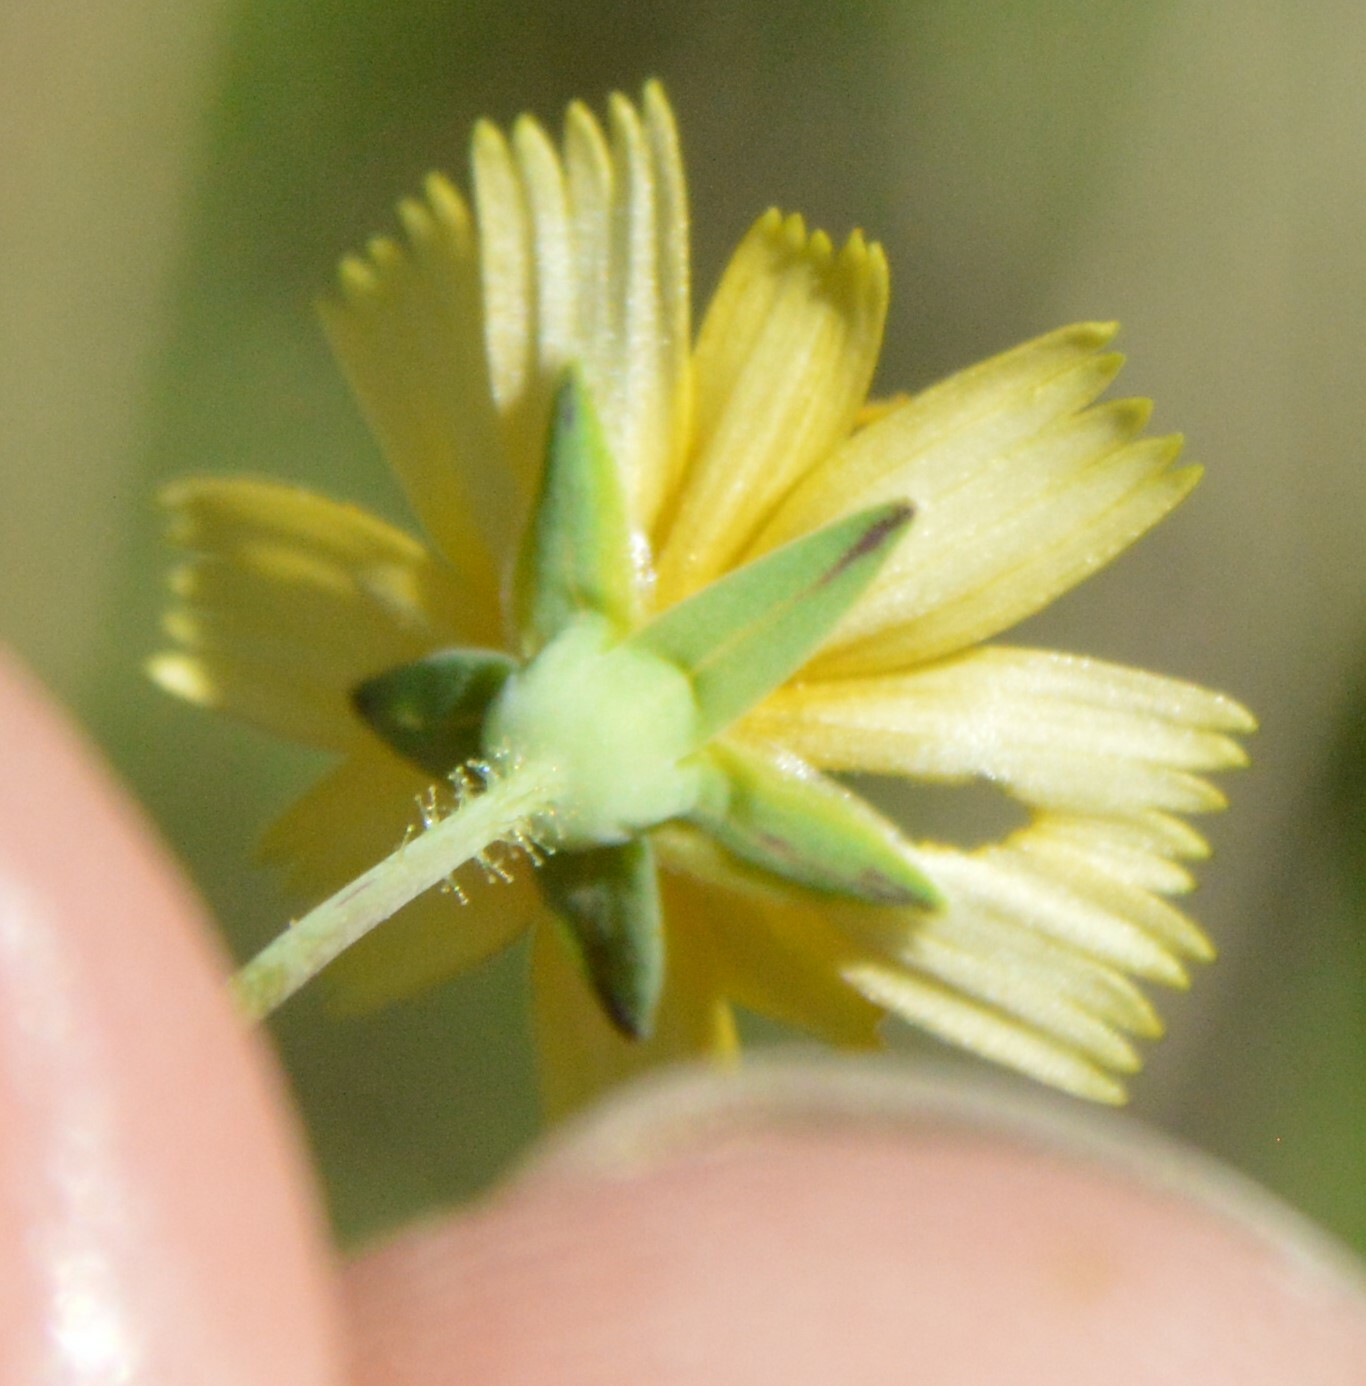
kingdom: Plantae
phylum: Tracheophyta
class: Magnoliopsida
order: Asterales
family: Asteraceae
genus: Krigia
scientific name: Krigia occidentalis
